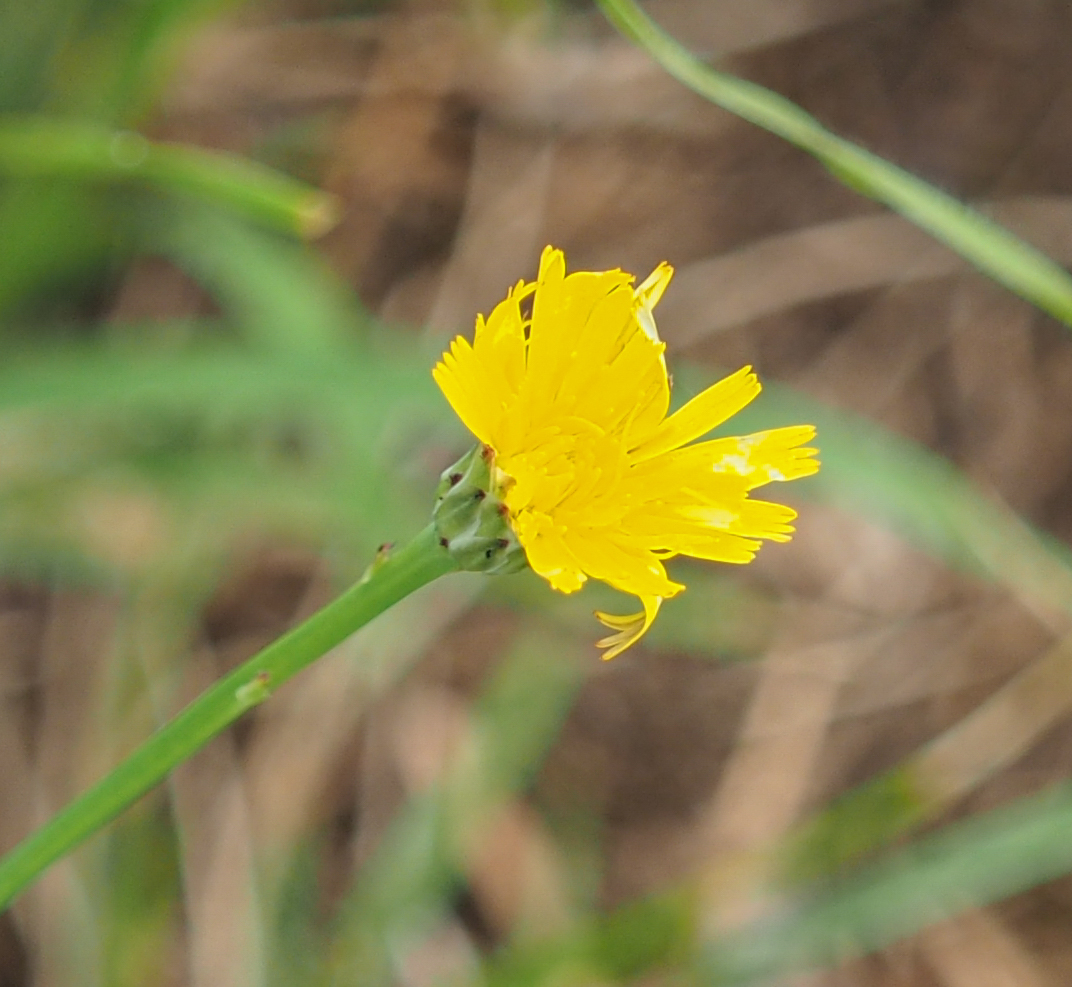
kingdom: Plantae
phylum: Tracheophyta
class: Magnoliopsida
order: Asterales
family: Asteraceae
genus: Hypochaeris
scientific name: Hypochaeris radicata
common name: Flatweed
